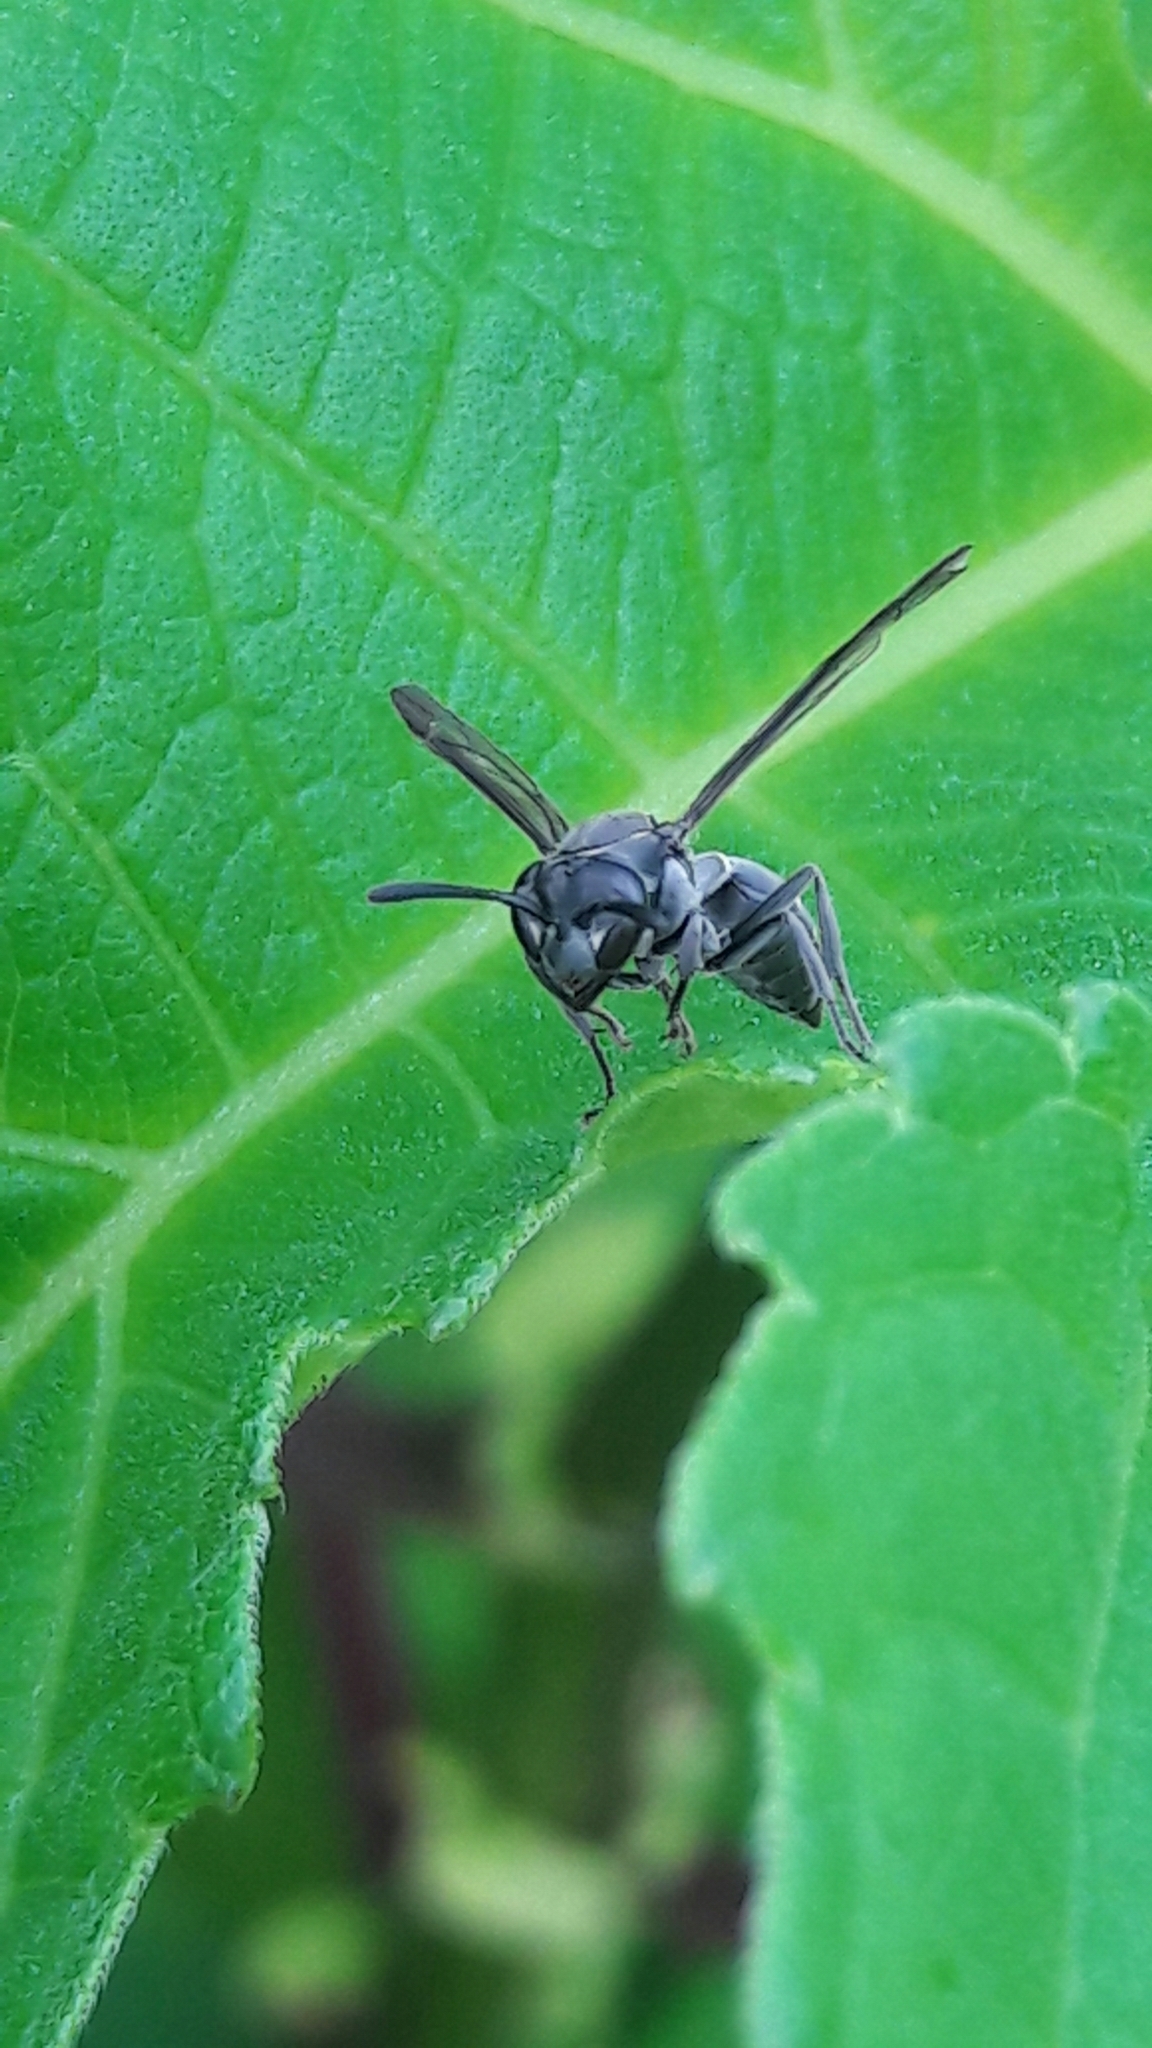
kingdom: Animalia
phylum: Arthropoda
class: Insecta
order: Hymenoptera
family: Eumenidae
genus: Polybia
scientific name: Polybia paulista
